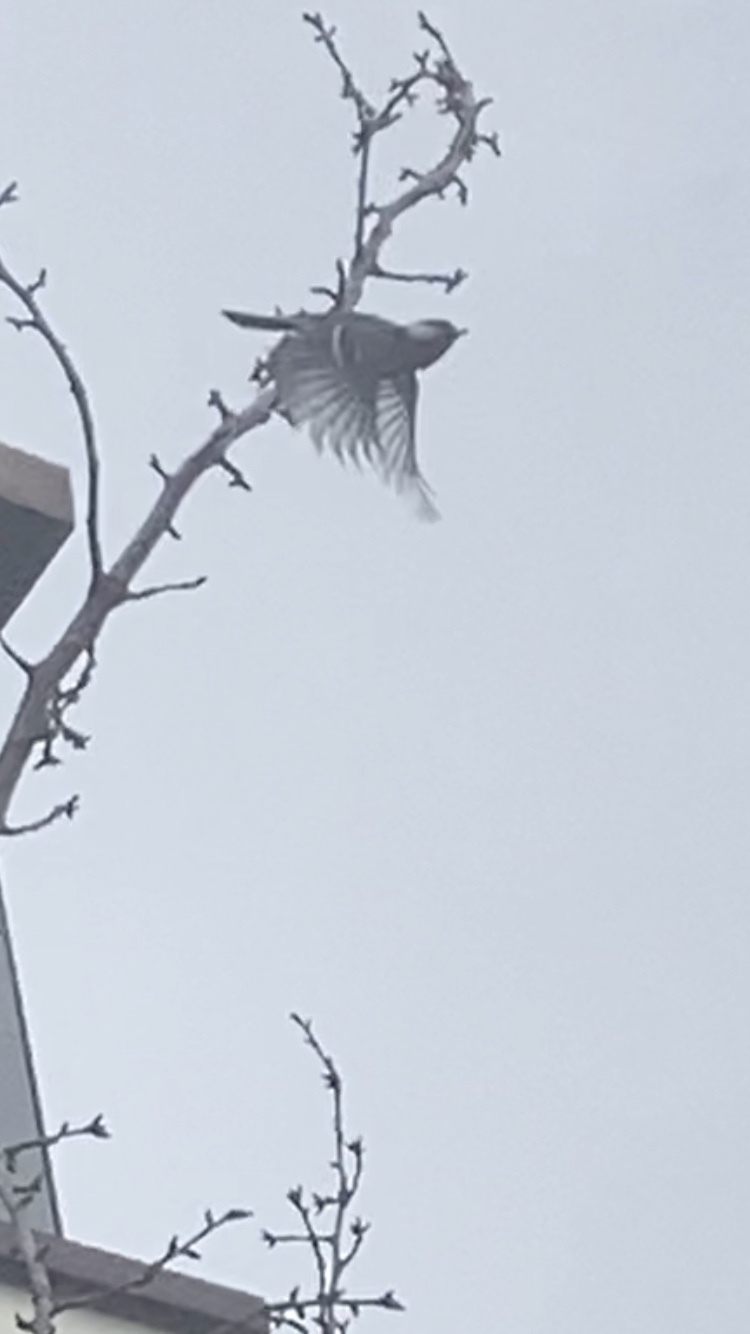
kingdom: Animalia
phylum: Chordata
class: Aves
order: Passeriformes
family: Paridae
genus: Parus
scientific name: Parus major
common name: Great tit
